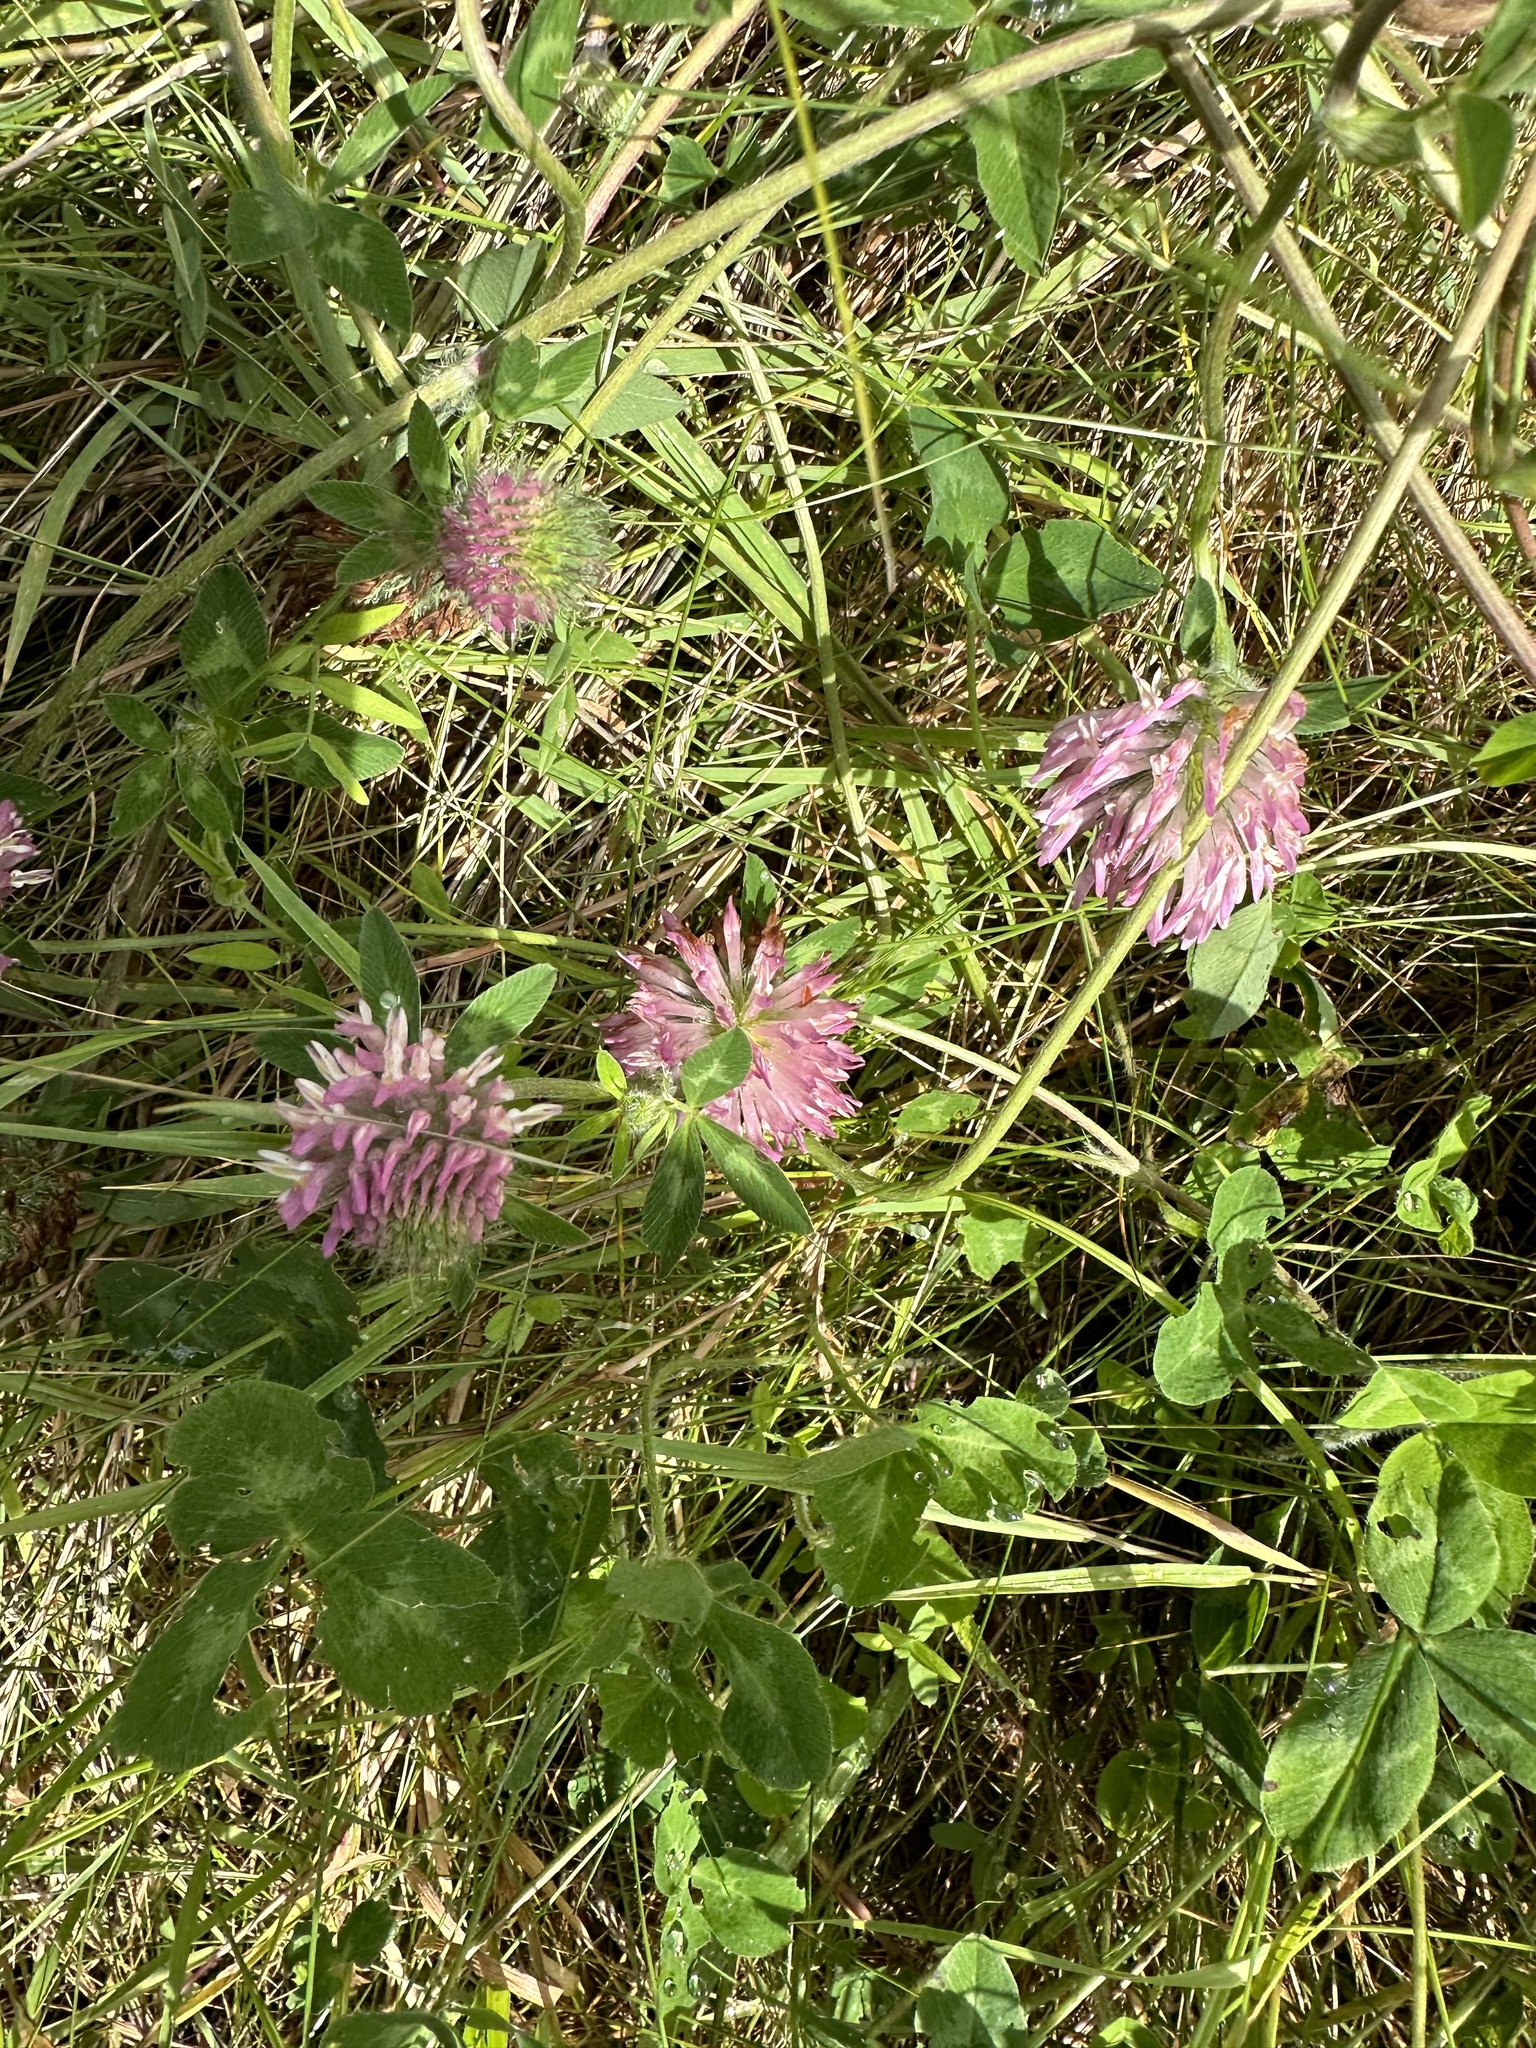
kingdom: Plantae
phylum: Tracheophyta
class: Magnoliopsida
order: Fabales
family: Fabaceae
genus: Trifolium
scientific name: Trifolium pratense
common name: Red clover
